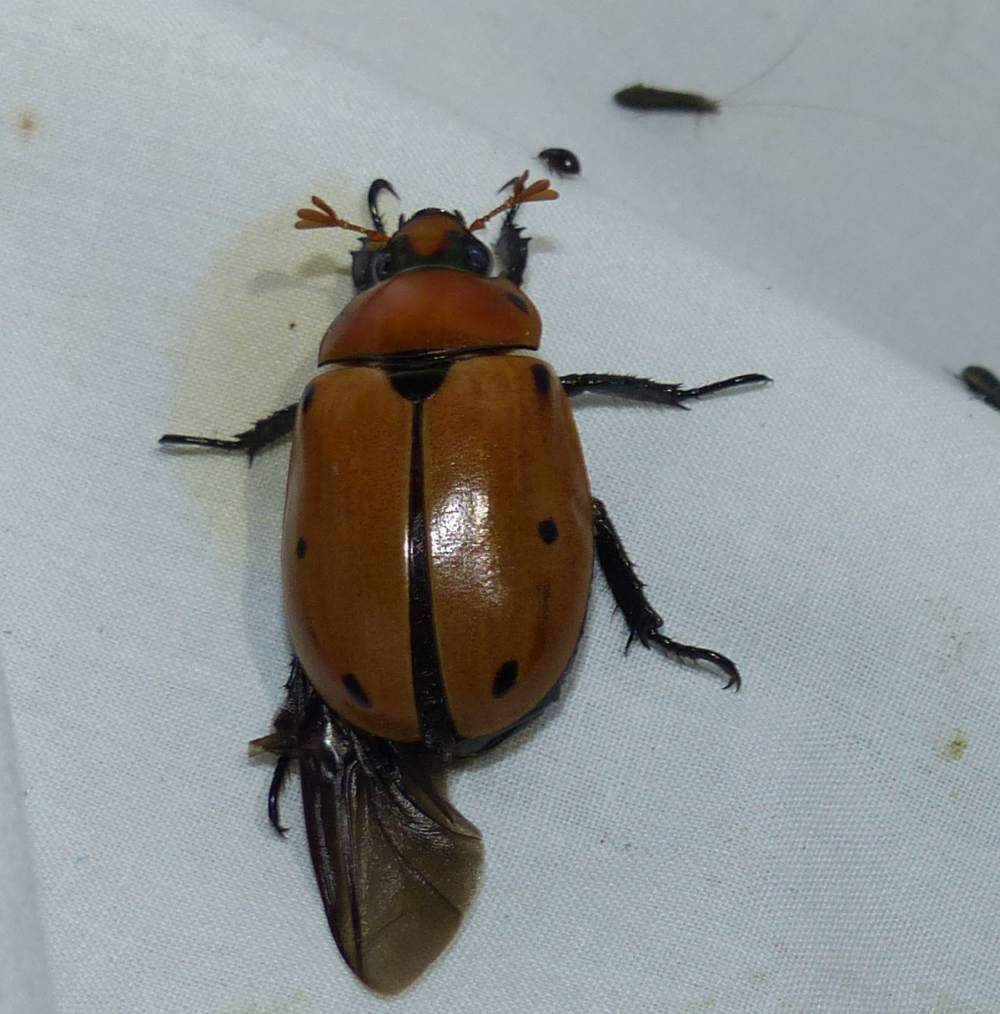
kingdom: Animalia
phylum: Arthropoda
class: Insecta
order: Coleoptera
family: Scarabaeidae
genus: Pelidnota
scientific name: Pelidnota punctata
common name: Grapevine beetle
